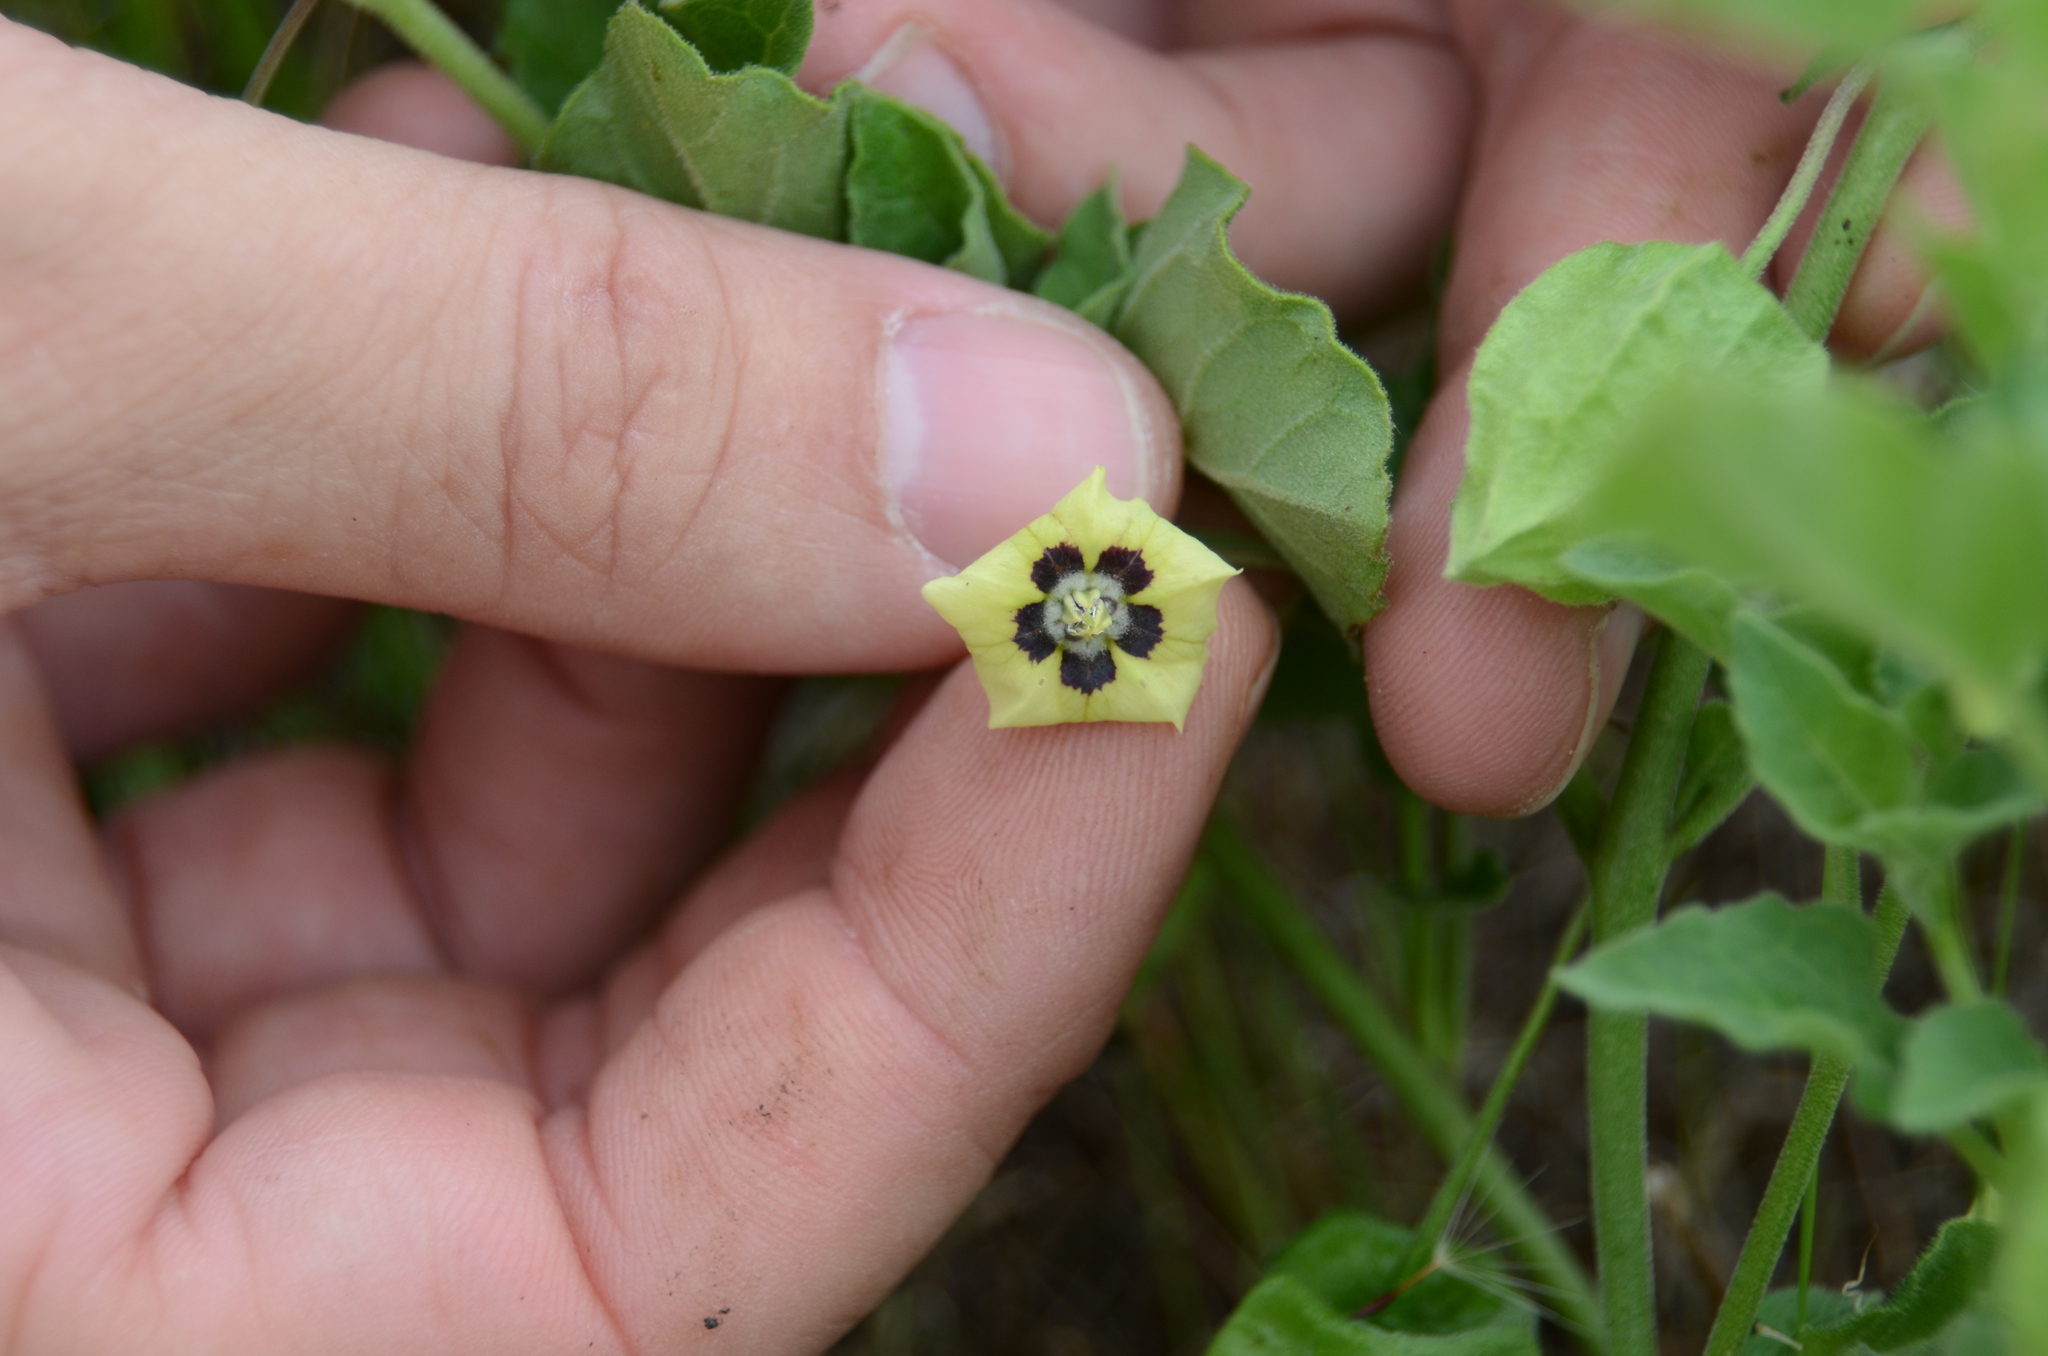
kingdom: Plantae
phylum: Tracheophyta
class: Magnoliopsida
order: Solanales
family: Solanaceae
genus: Physalis
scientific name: Physalis cinerascens
